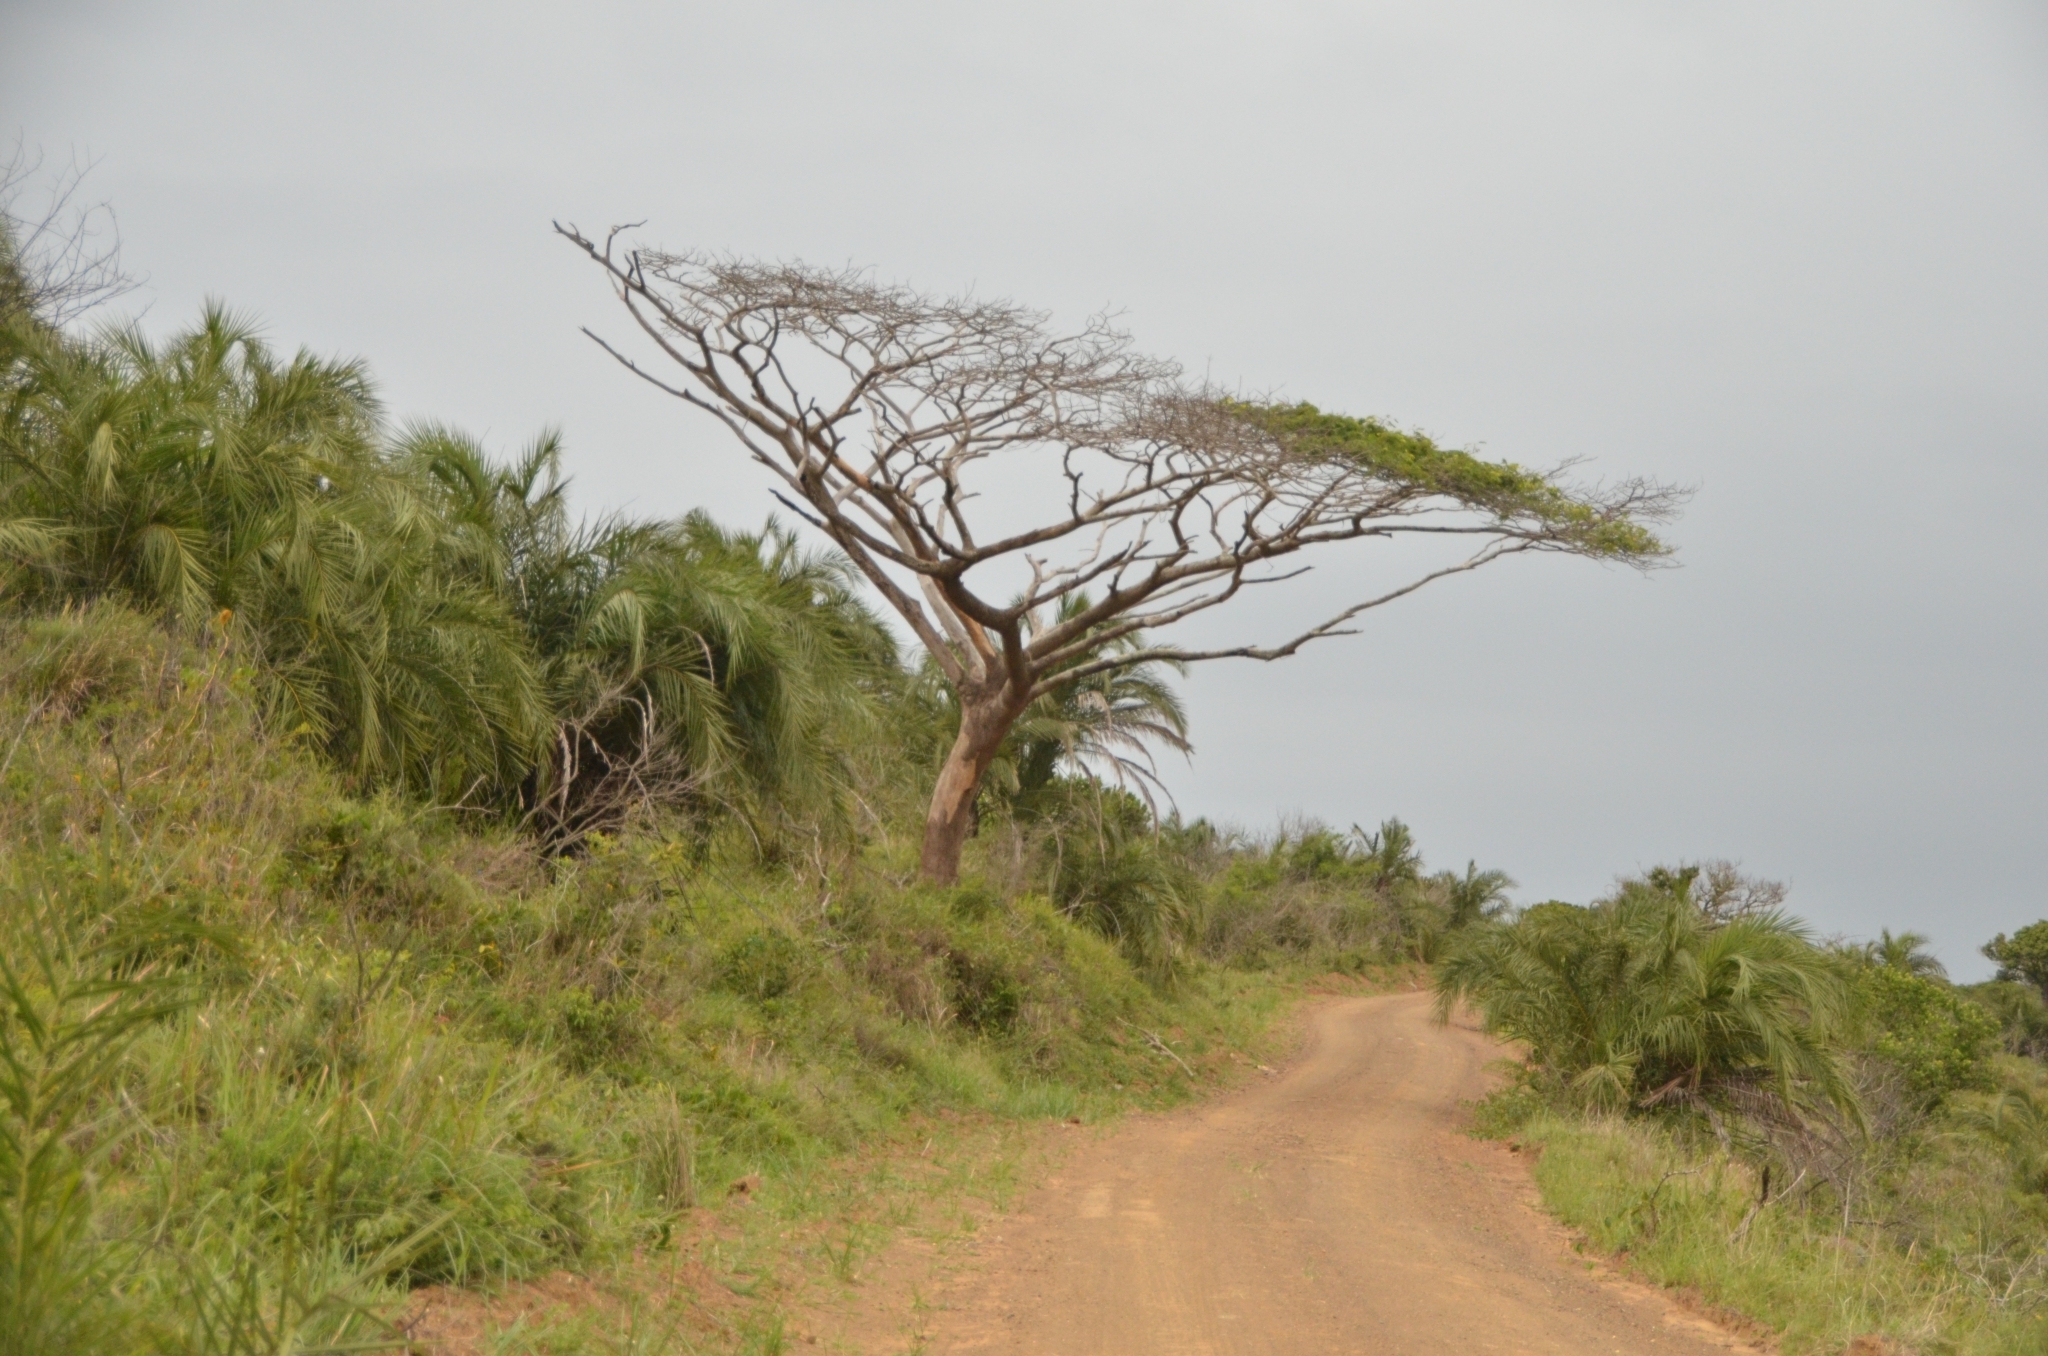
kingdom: Plantae
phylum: Tracheophyta
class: Magnoliopsida
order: Fabales
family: Fabaceae
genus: Albizia
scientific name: Albizia adianthifolia
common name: West african albizia
